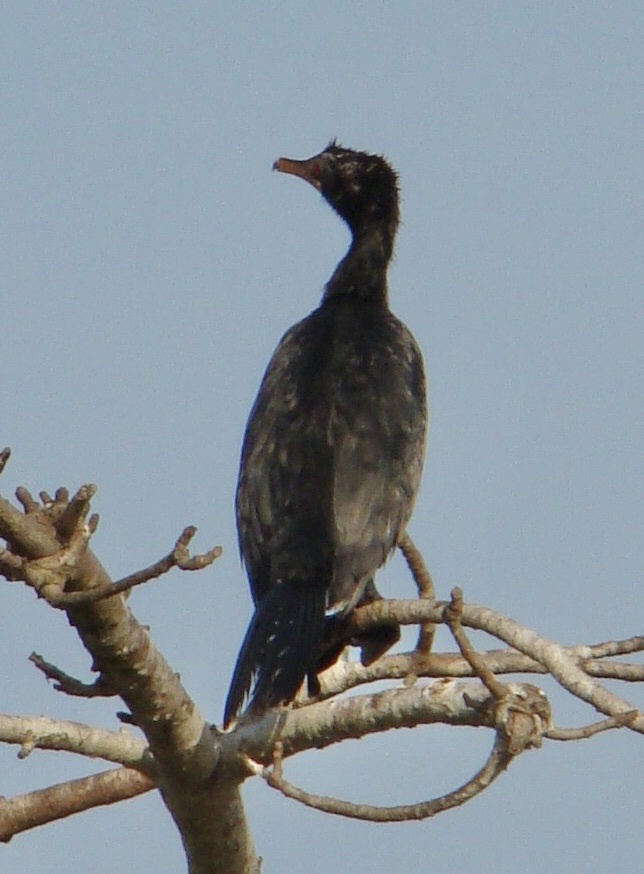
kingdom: Animalia
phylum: Chordata
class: Aves
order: Suliformes
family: Phalacrocoracidae
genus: Microcarbo
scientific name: Microcarbo africanus
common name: Long-tailed cormorant
